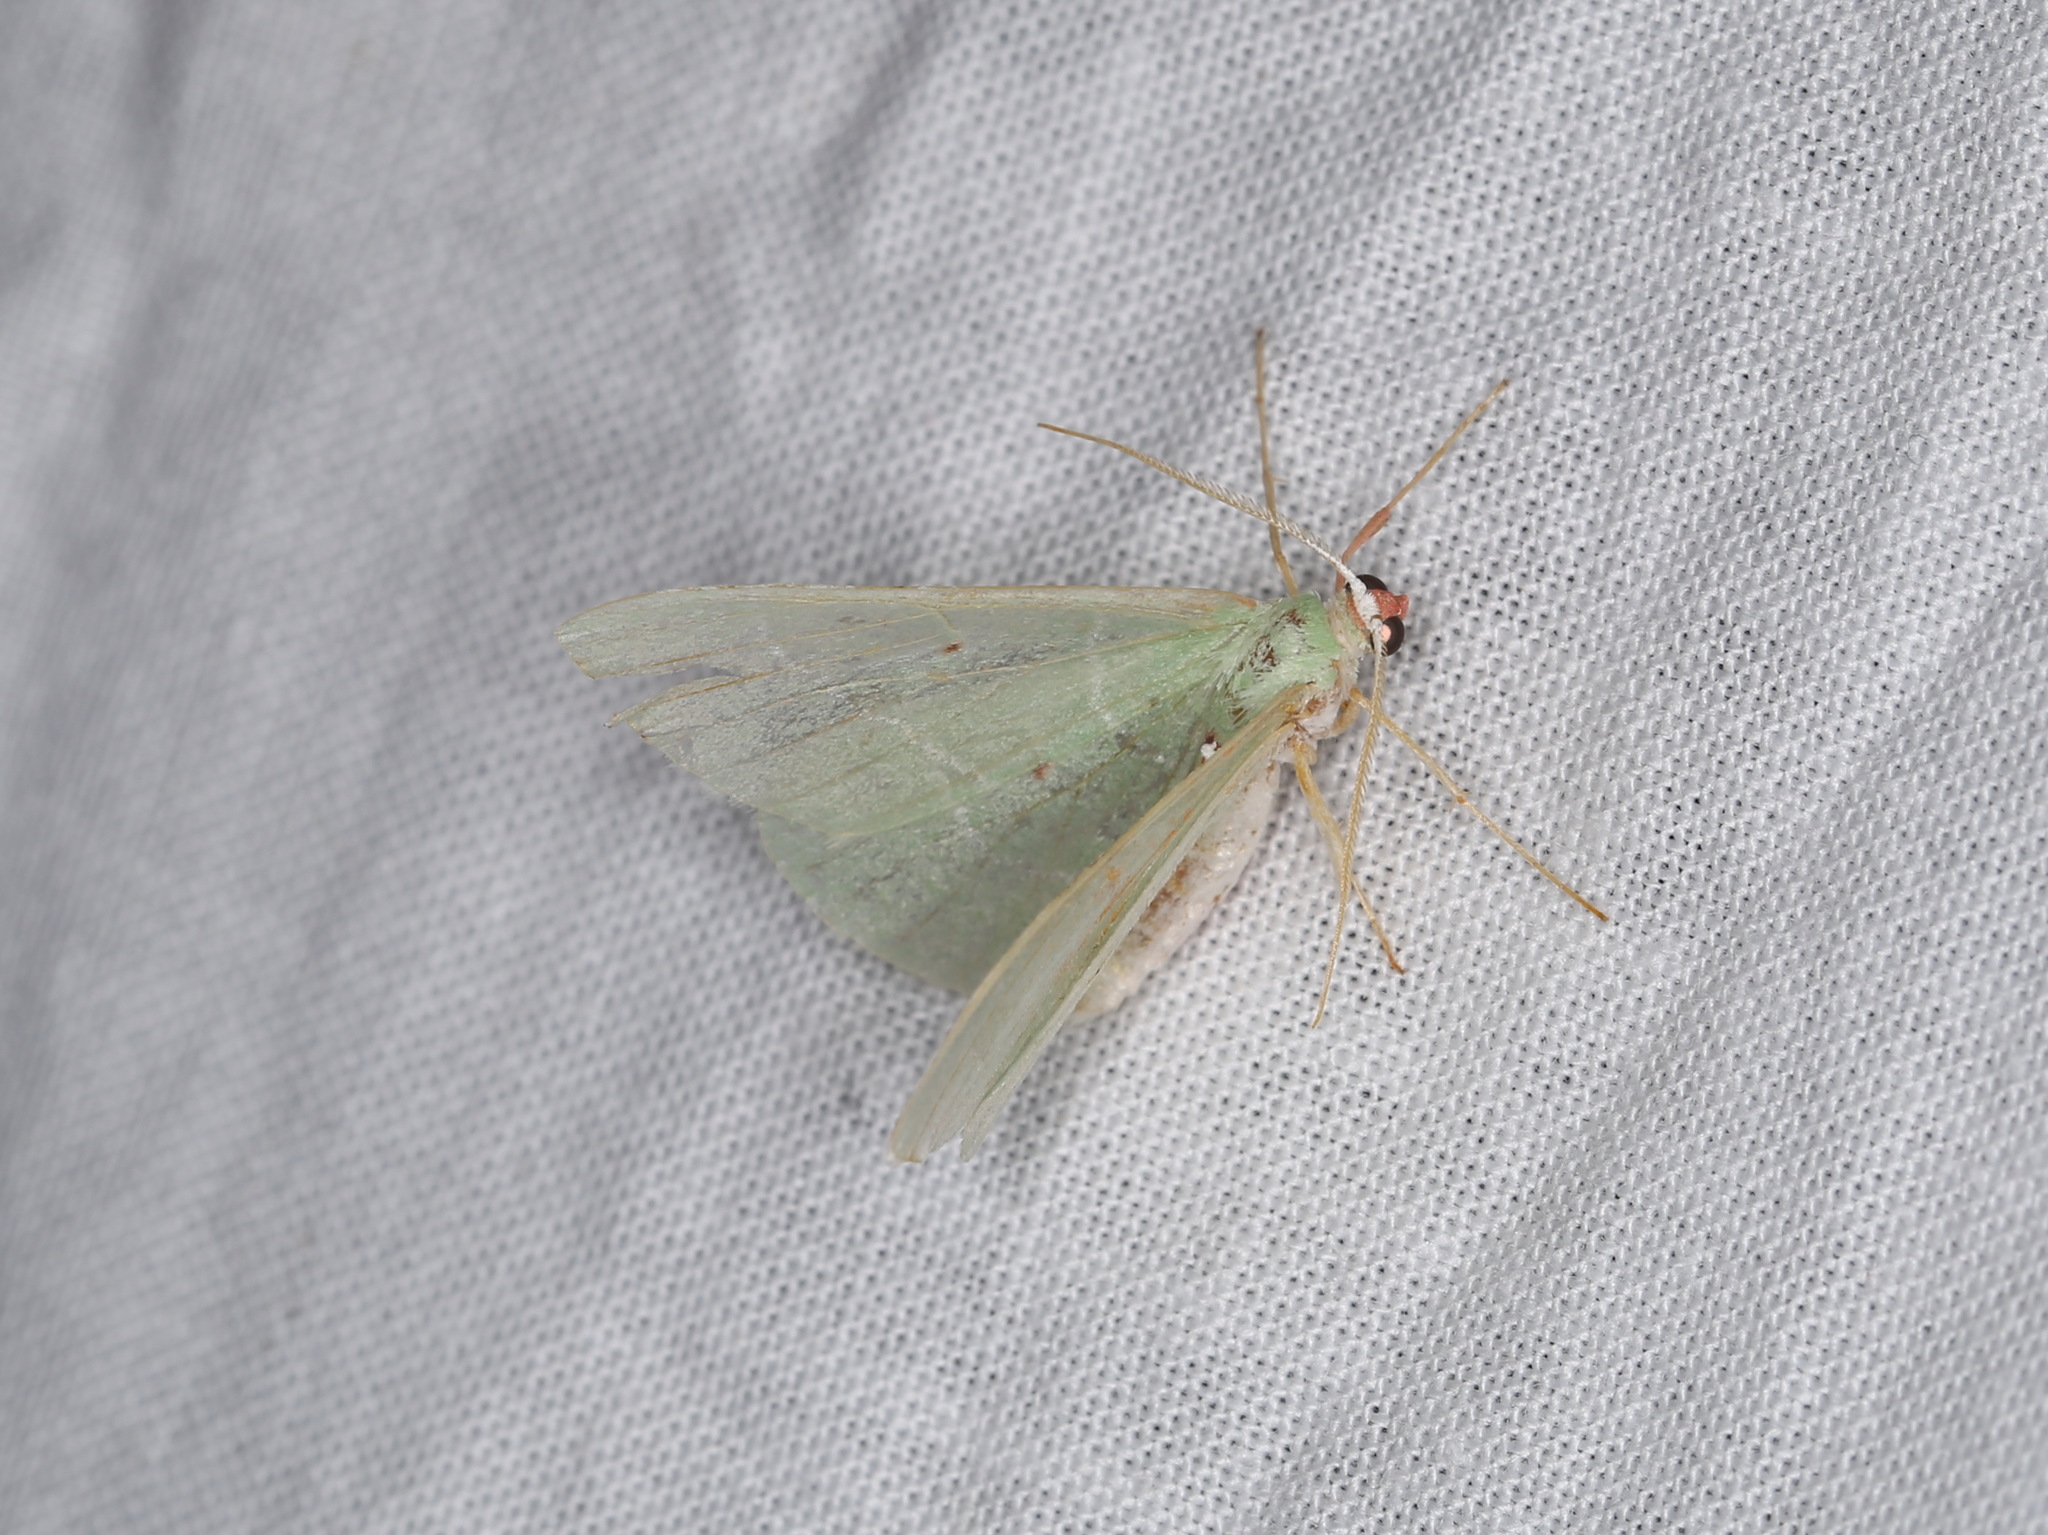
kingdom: Animalia
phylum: Arthropoda
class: Insecta
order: Lepidoptera
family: Geometridae
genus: Nemoria
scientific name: Nemoria darwiniata
